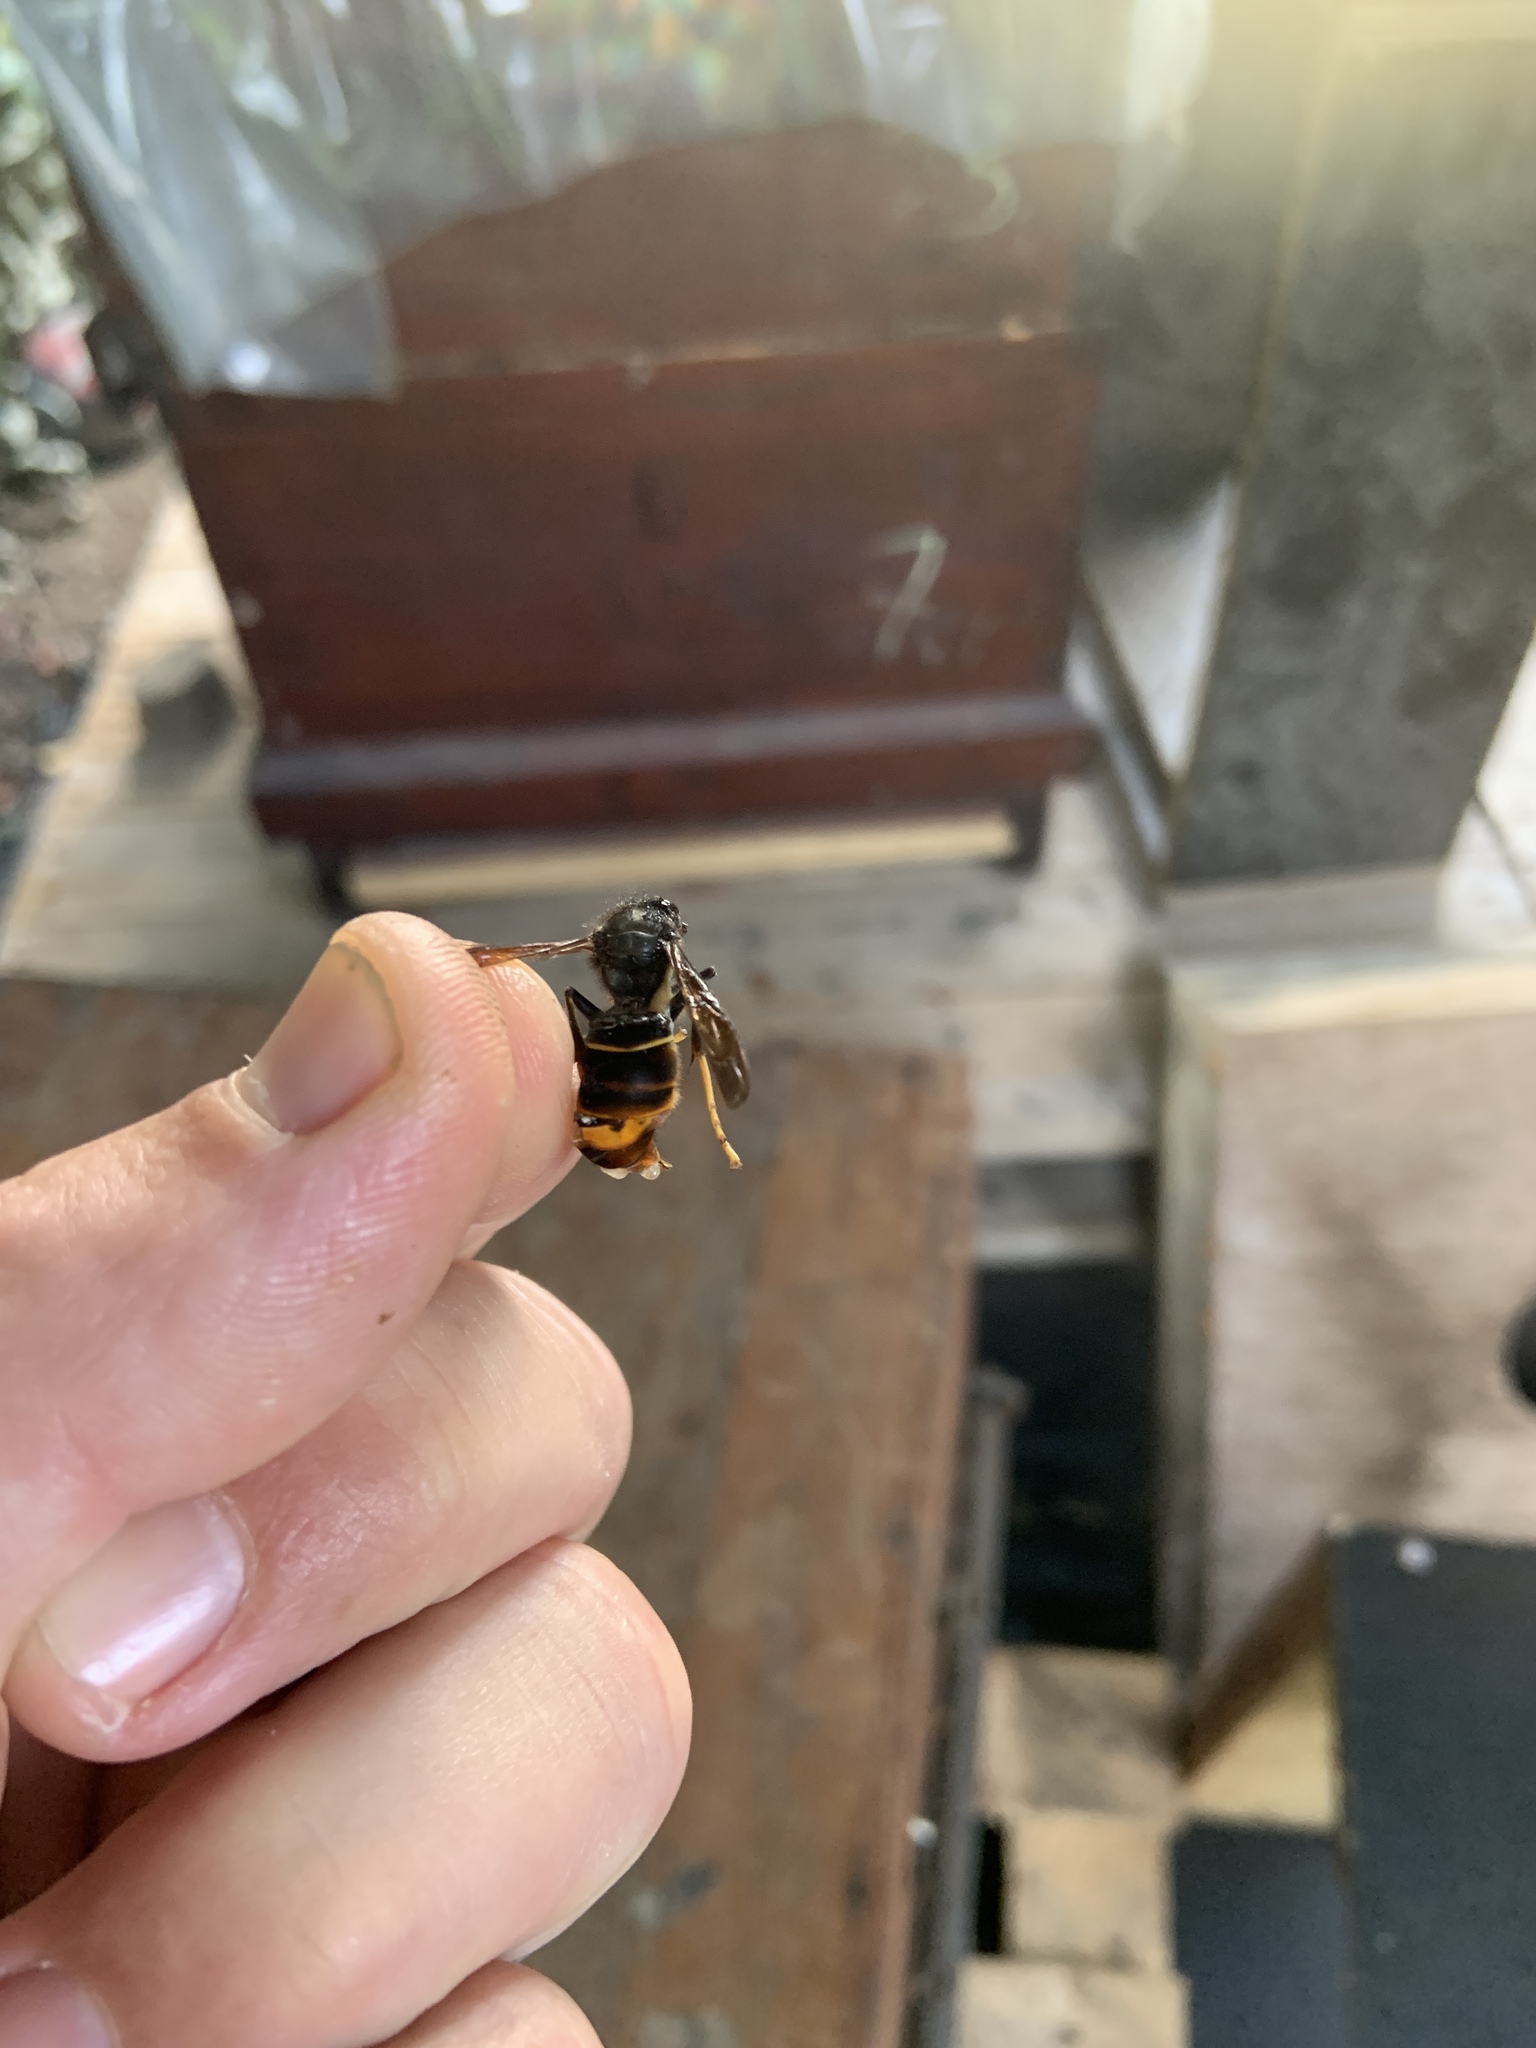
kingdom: Animalia
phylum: Arthropoda
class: Insecta
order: Hymenoptera
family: Vespidae
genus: Vespa
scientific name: Vespa velutina
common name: Asian hornet
